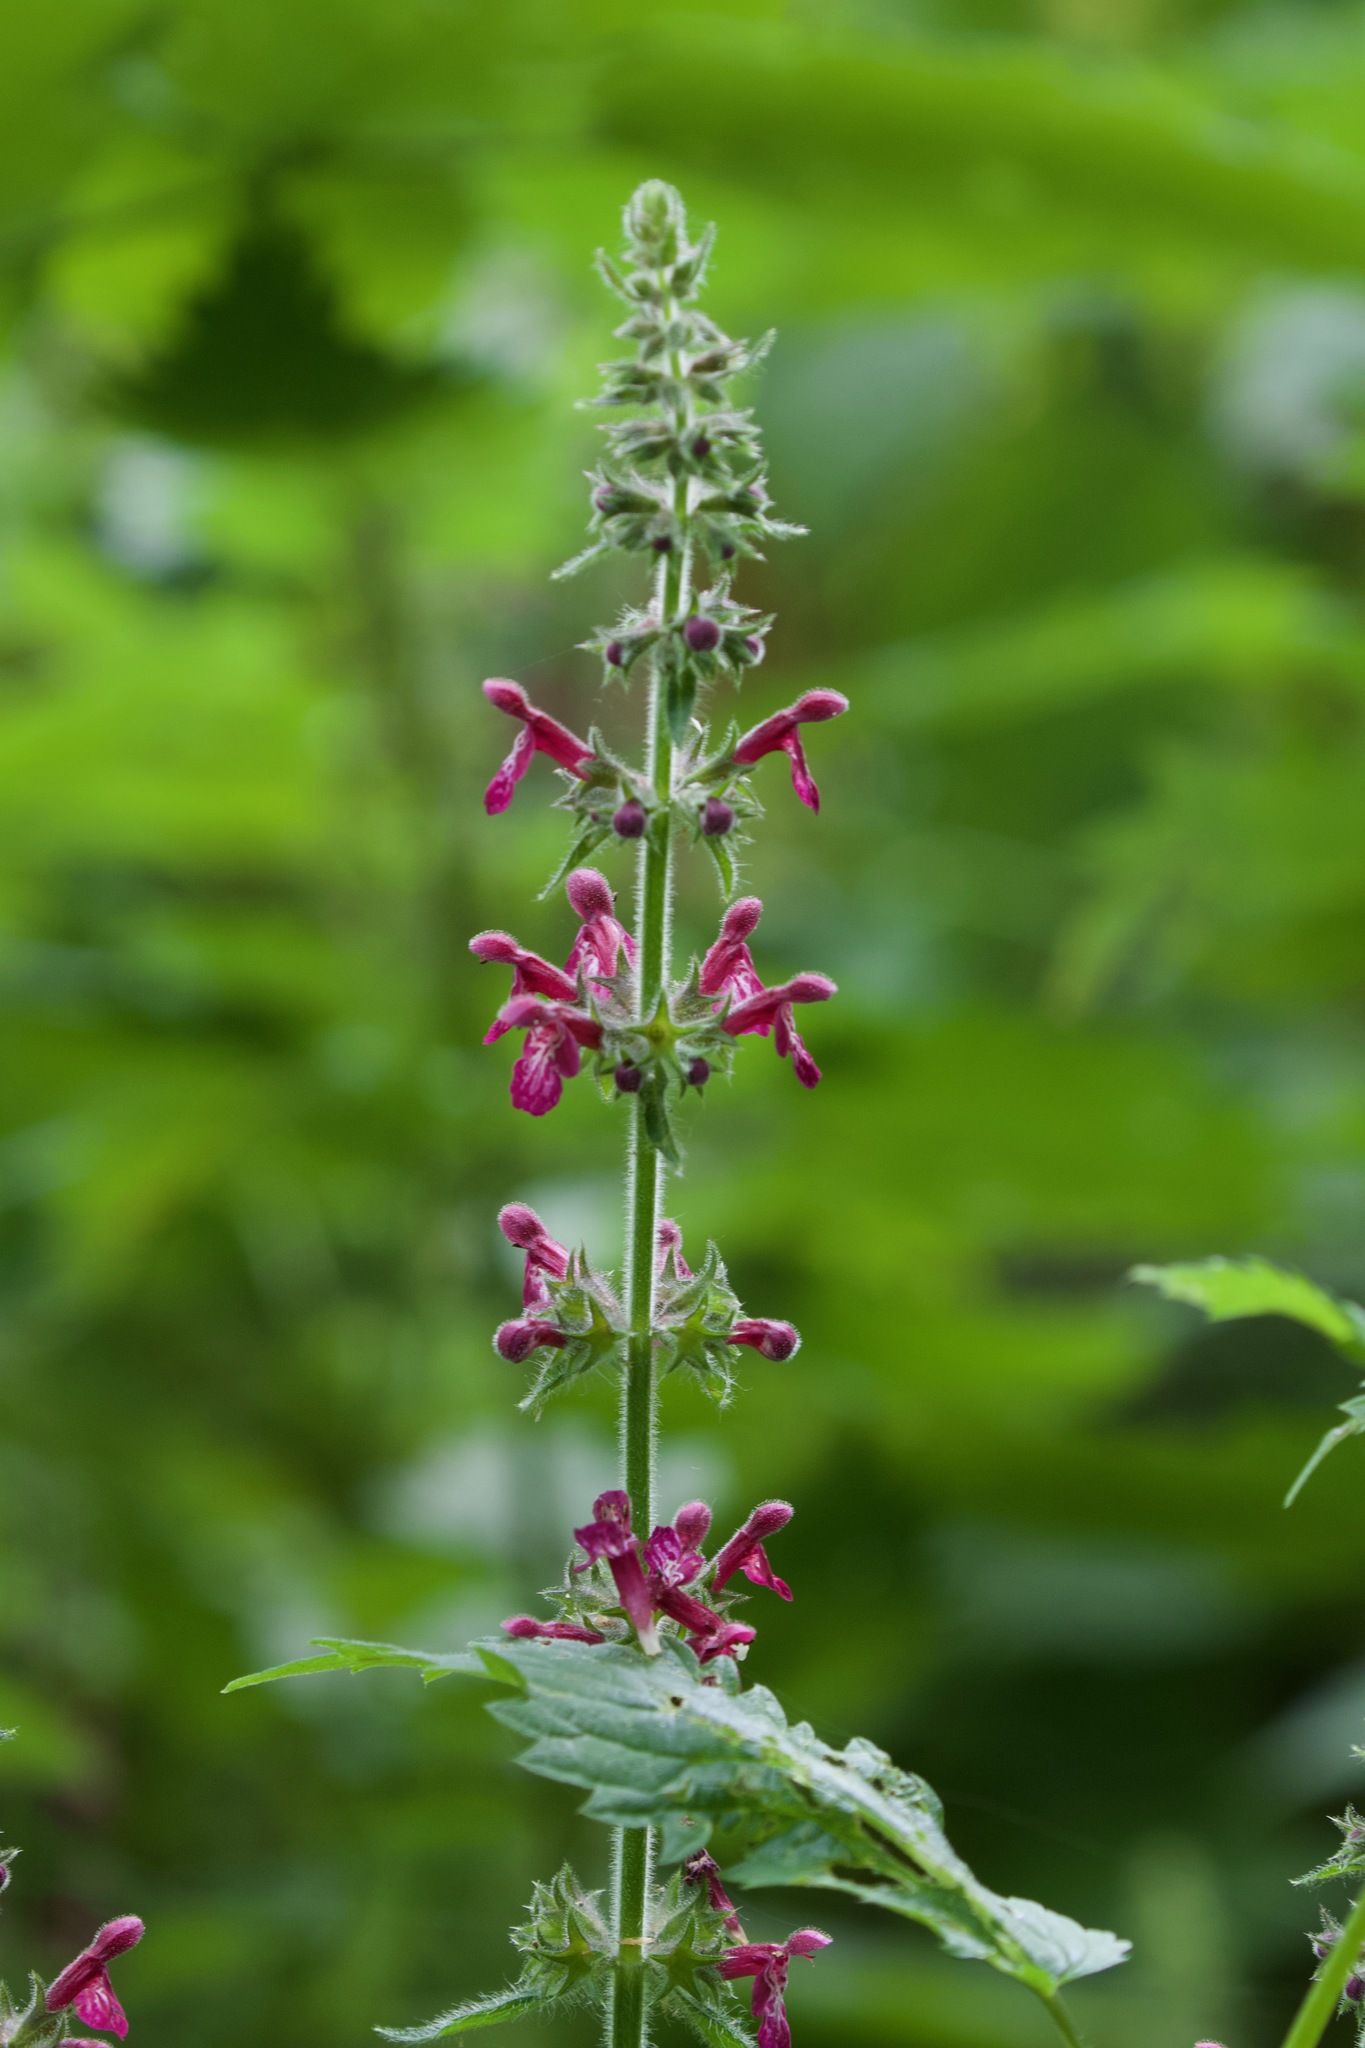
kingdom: Plantae
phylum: Tracheophyta
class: Magnoliopsida
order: Lamiales
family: Lamiaceae
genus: Stachys
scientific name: Stachys sylvatica
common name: Hedge woundwort
